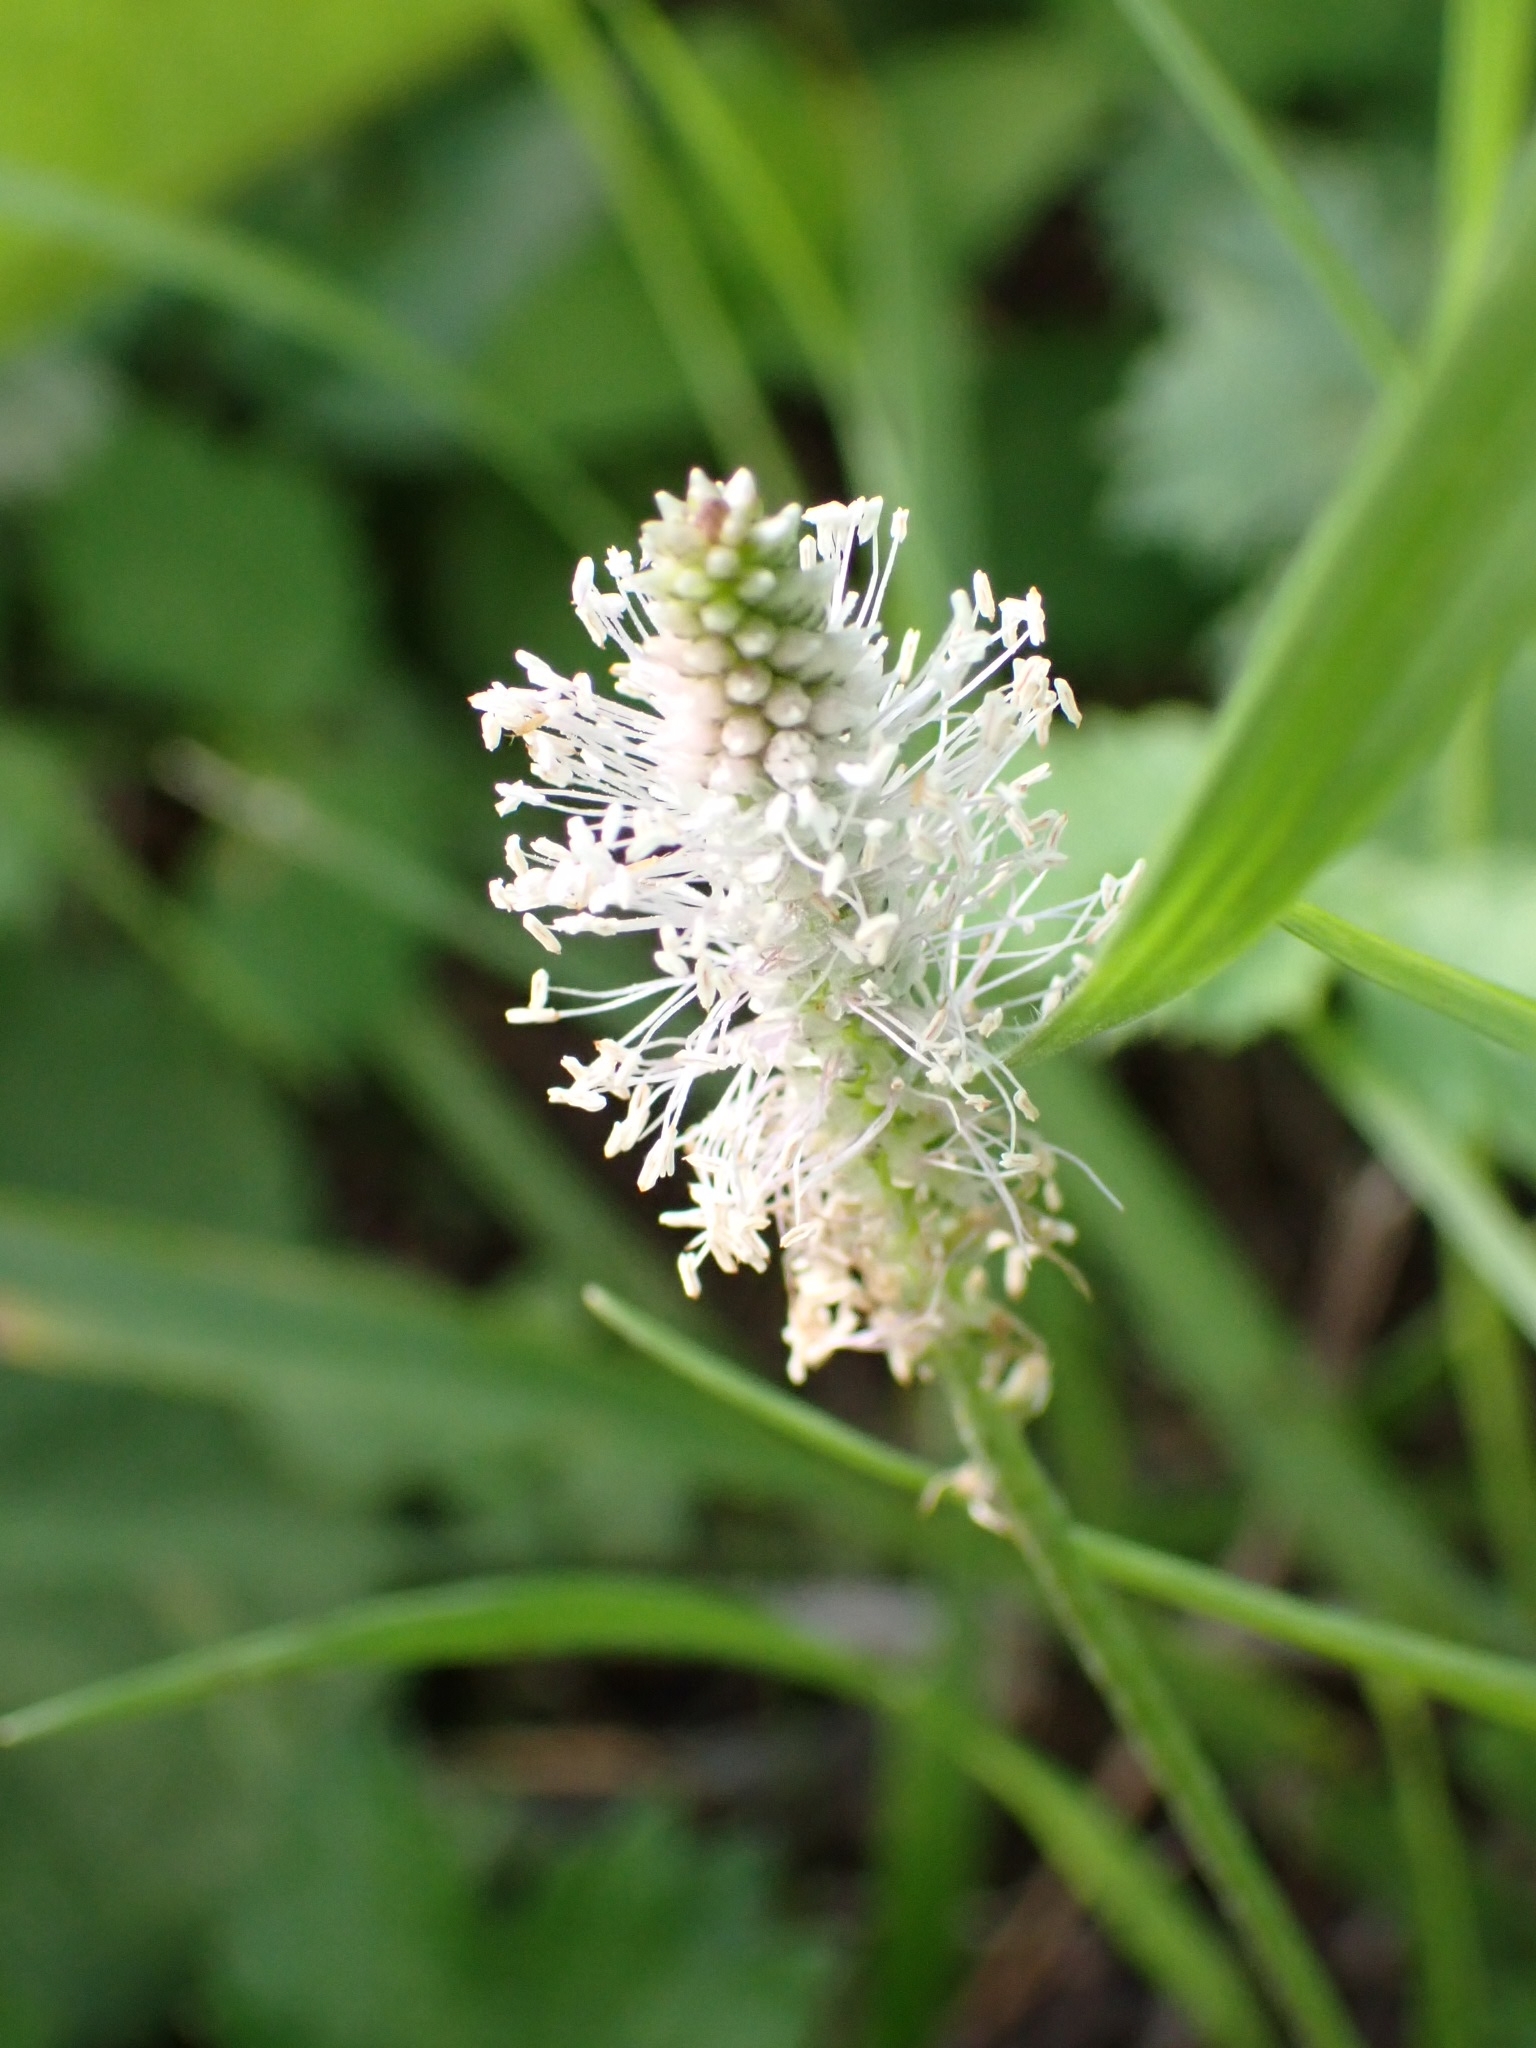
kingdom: Plantae
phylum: Tracheophyta
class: Magnoliopsida
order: Lamiales
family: Plantaginaceae
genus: Plantago
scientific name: Plantago media
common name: Hoary plantain
